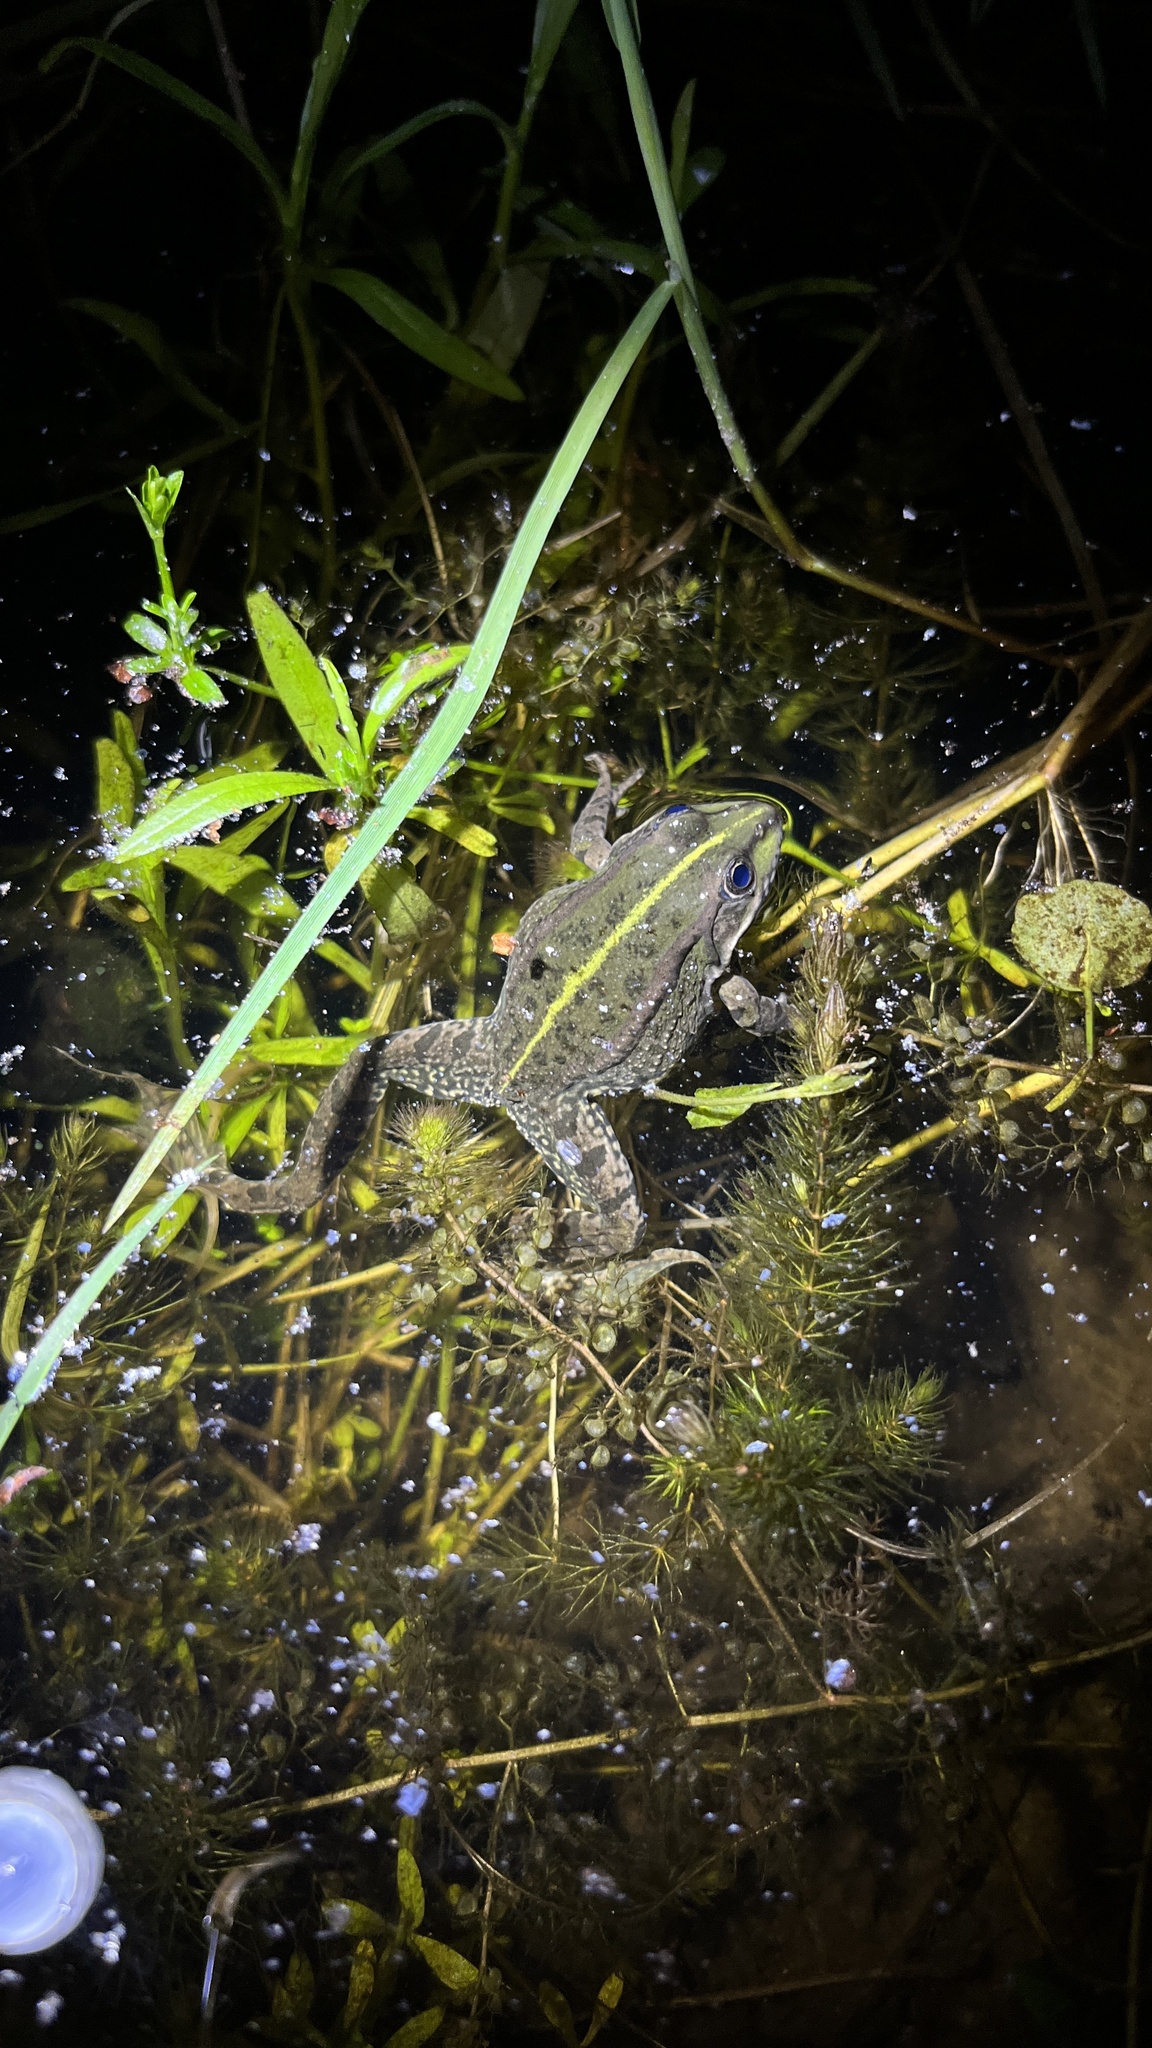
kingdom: Animalia
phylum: Chordata
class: Amphibia
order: Anura
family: Ranidae
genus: Pelophylax
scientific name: Pelophylax ridibundus
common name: Marsh frog
